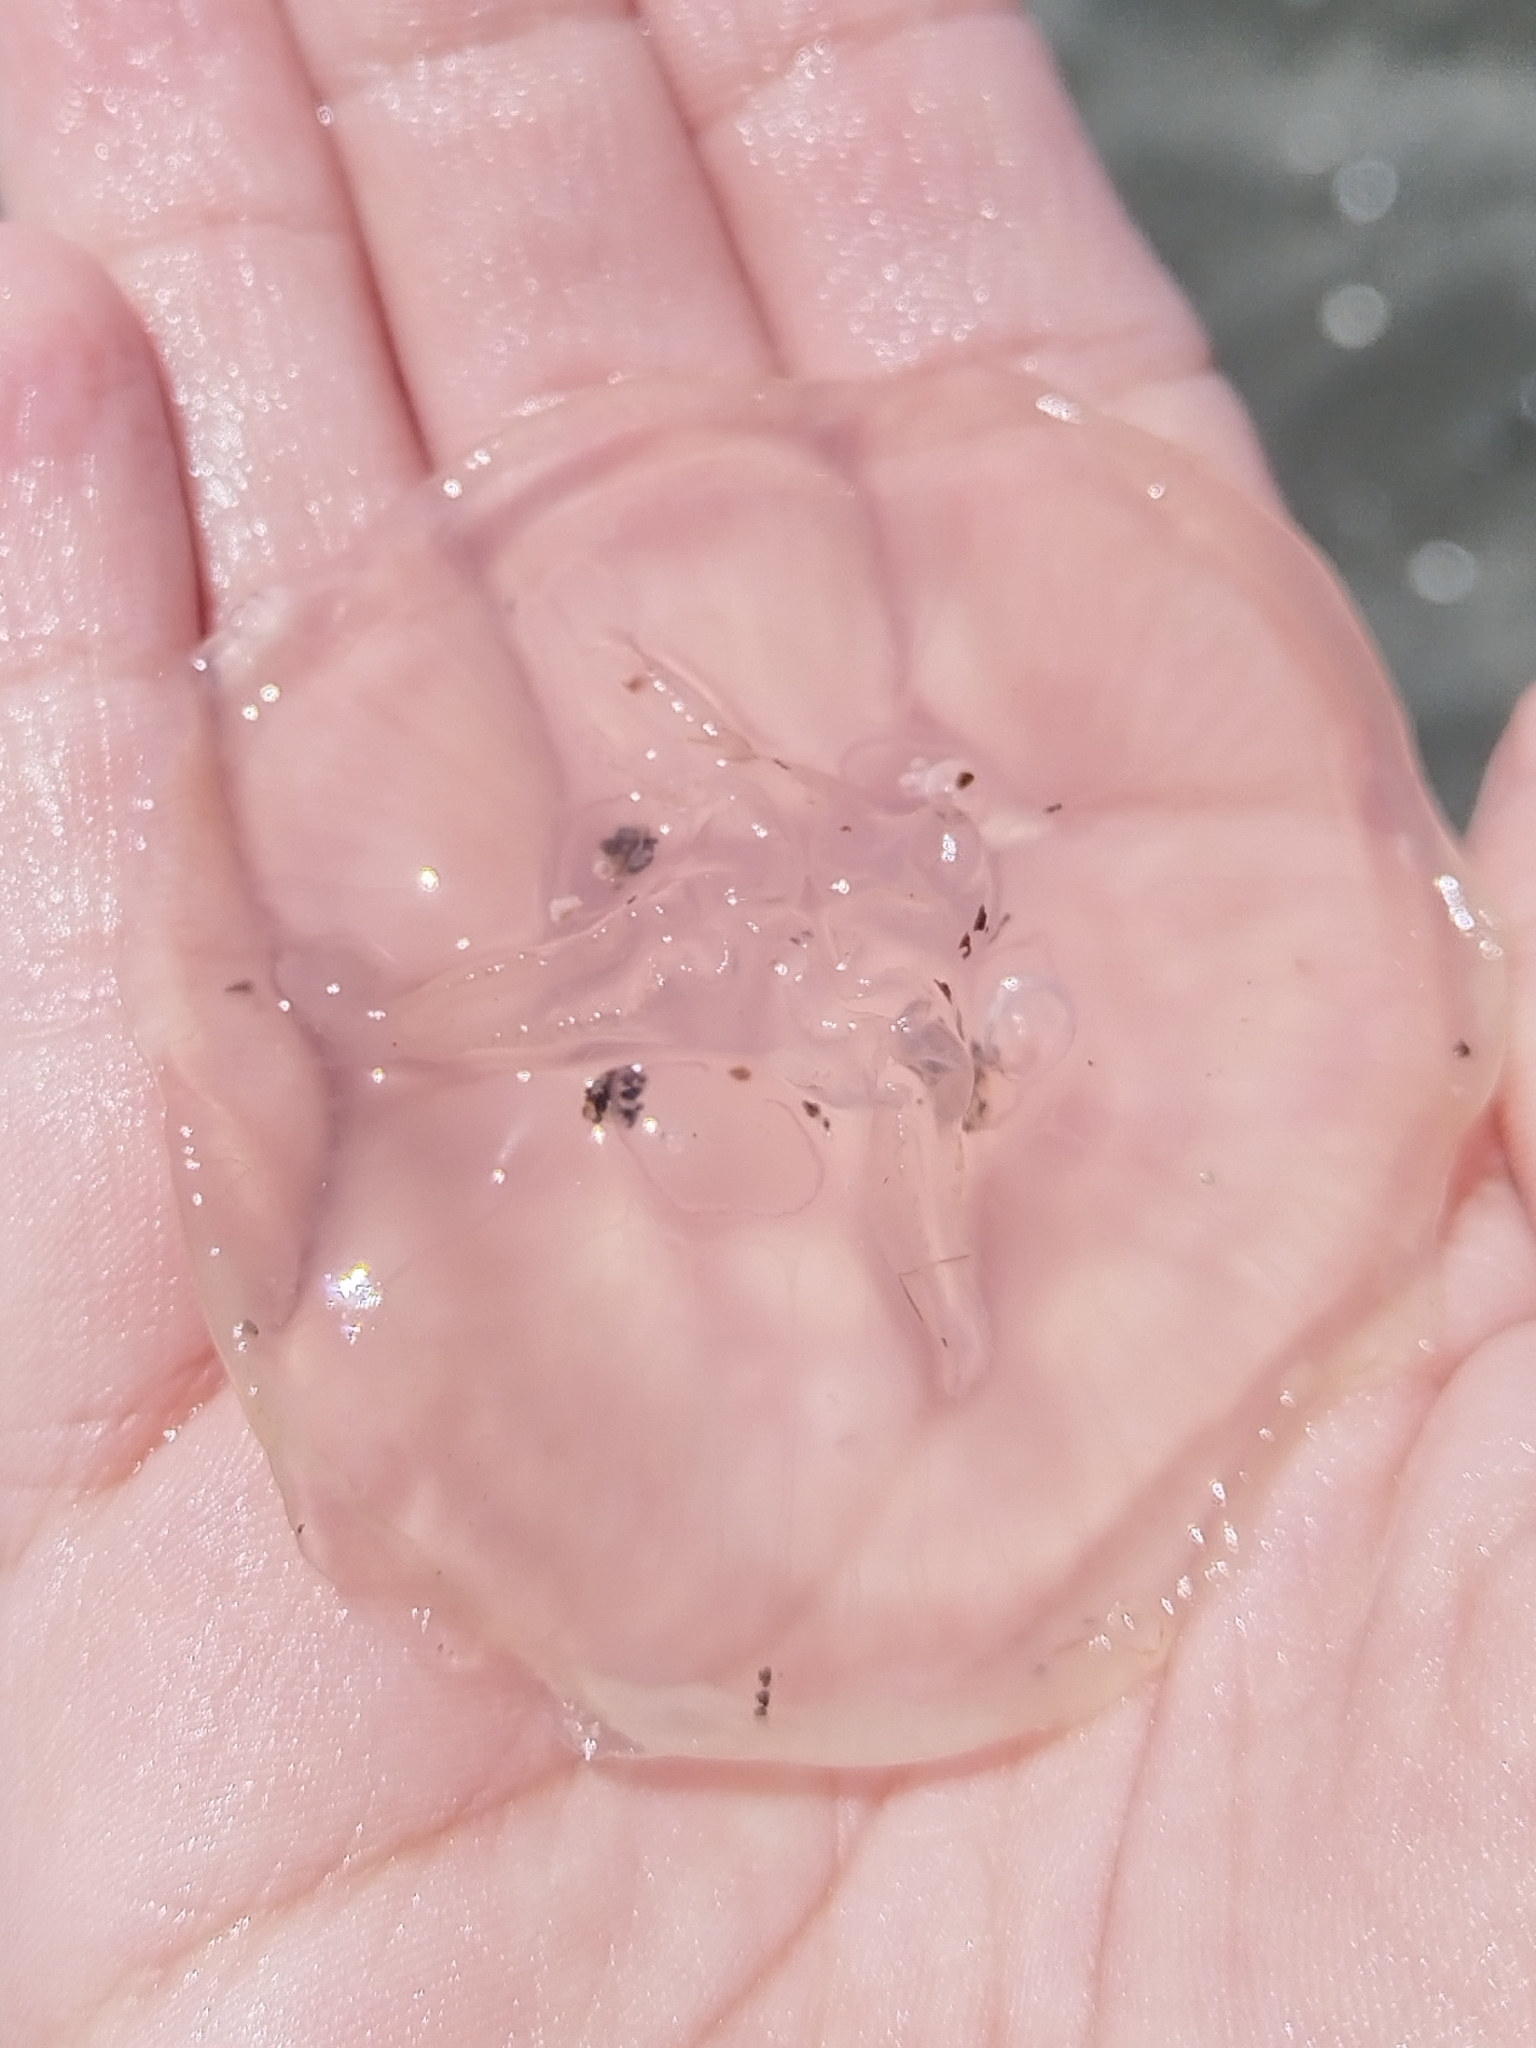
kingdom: Animalia
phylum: Cnidaria
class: Scyphozoa
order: Semaeostomeae
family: Ulmaridae
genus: Aurelia
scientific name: Aurelia aurita
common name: Moon jellyfish
